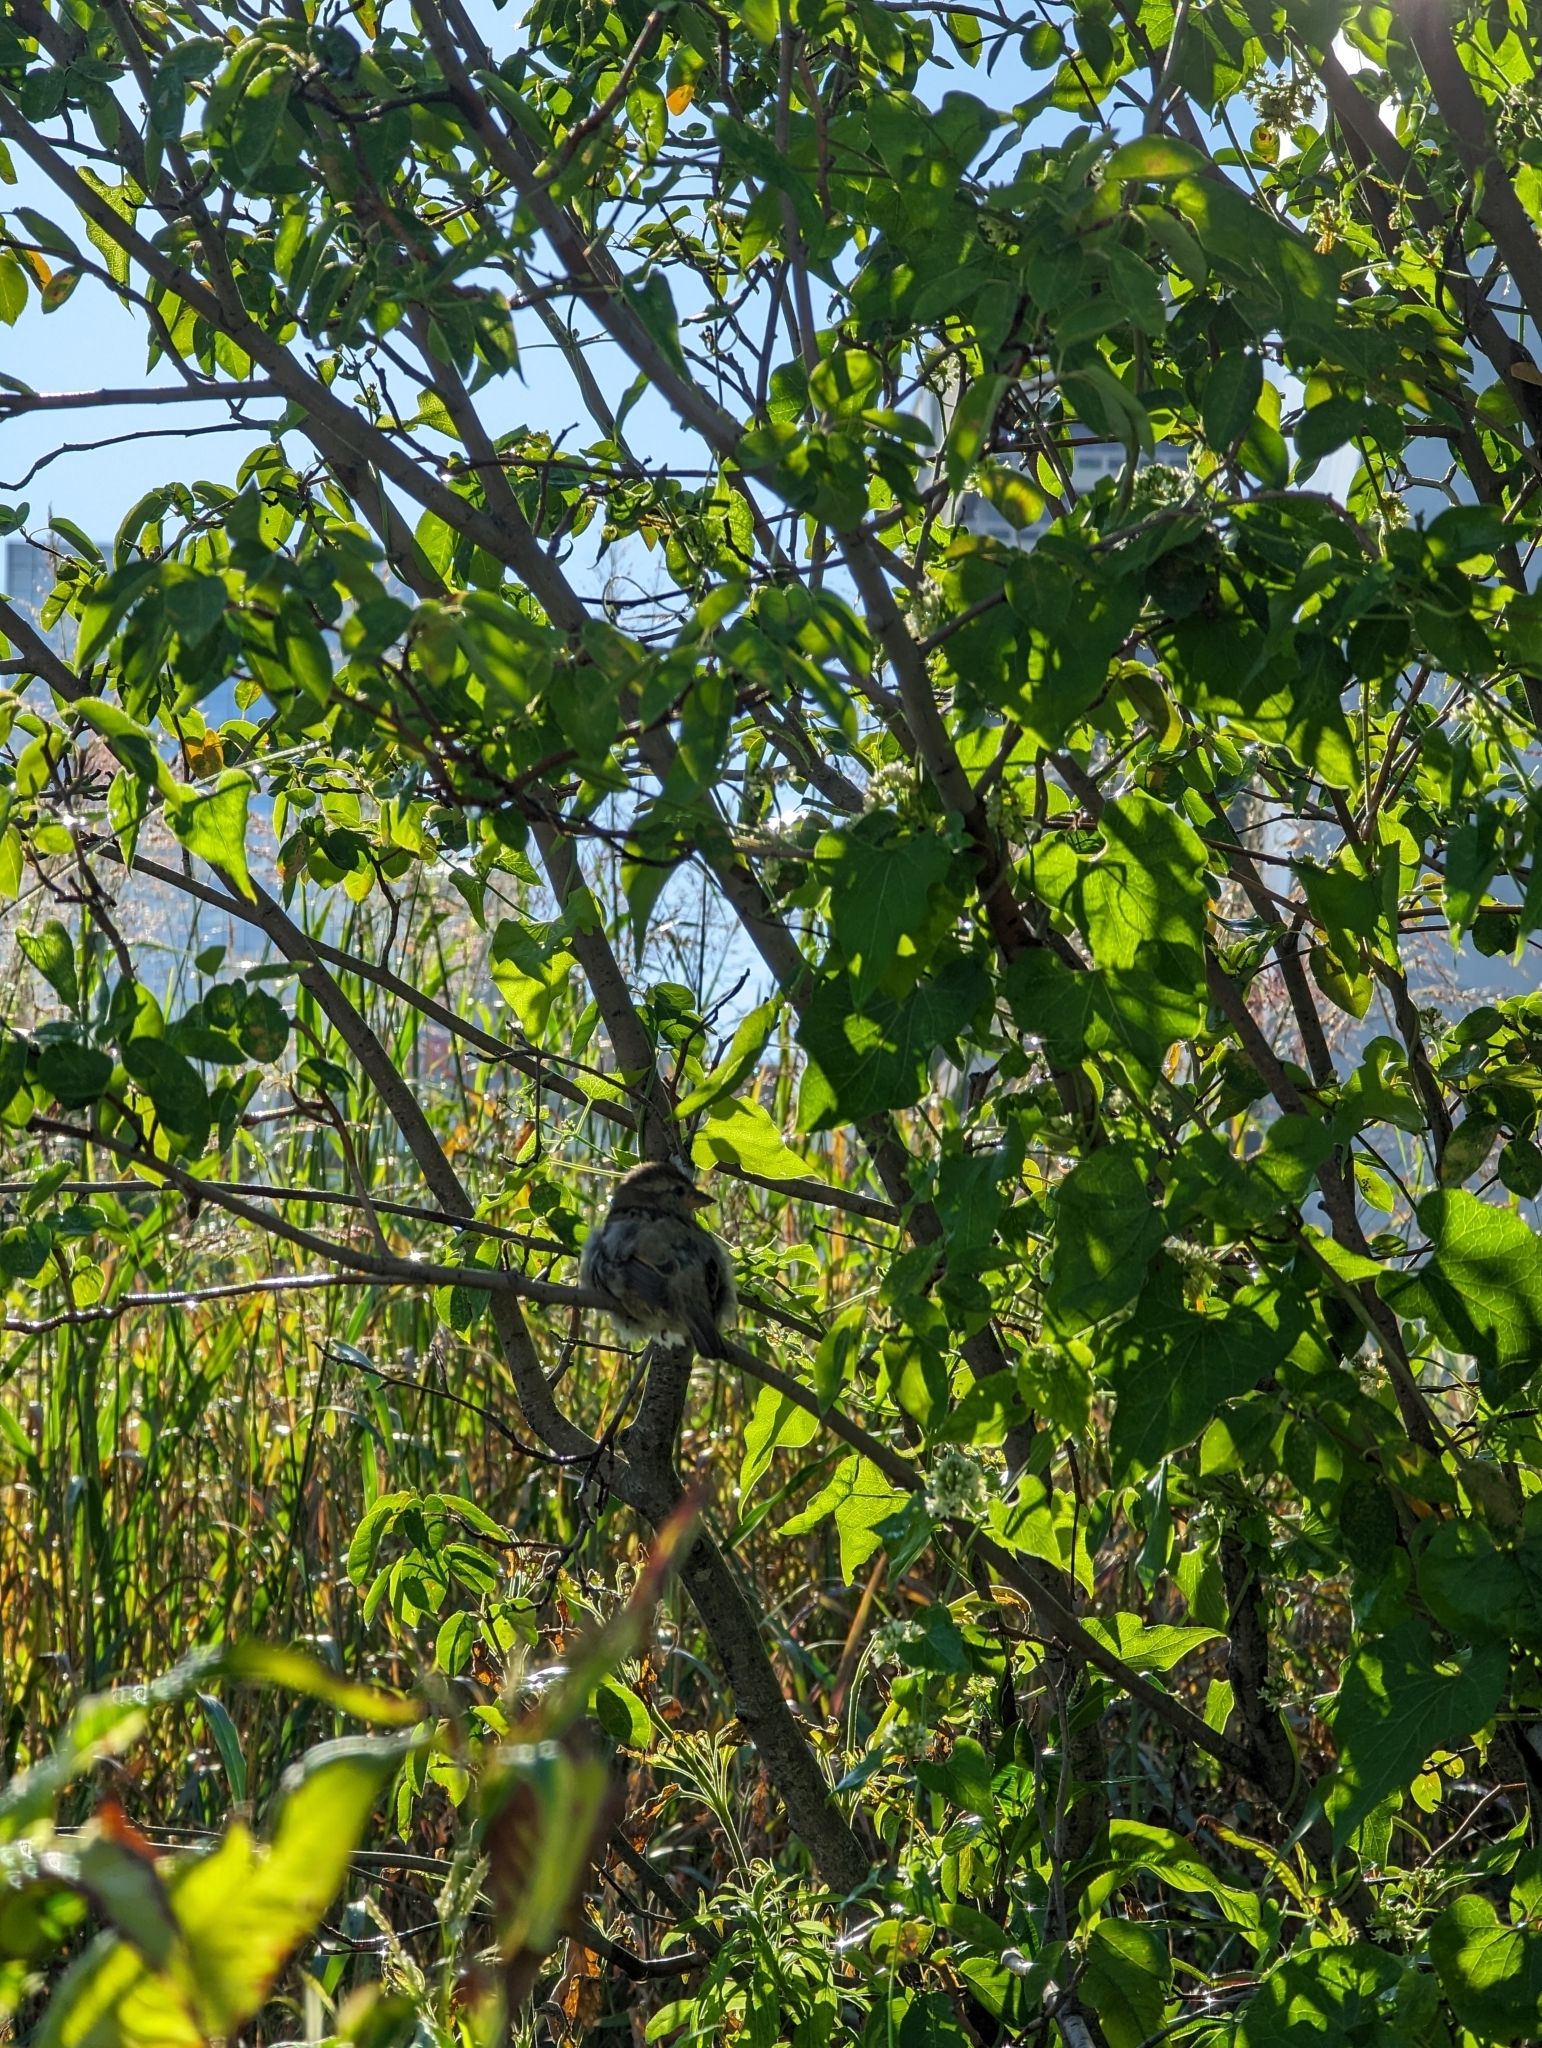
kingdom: Animalia
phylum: Chordata
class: Aves
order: Passeriformes
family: Passeridae
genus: Passer
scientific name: Passer domesticus
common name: House sparrow
